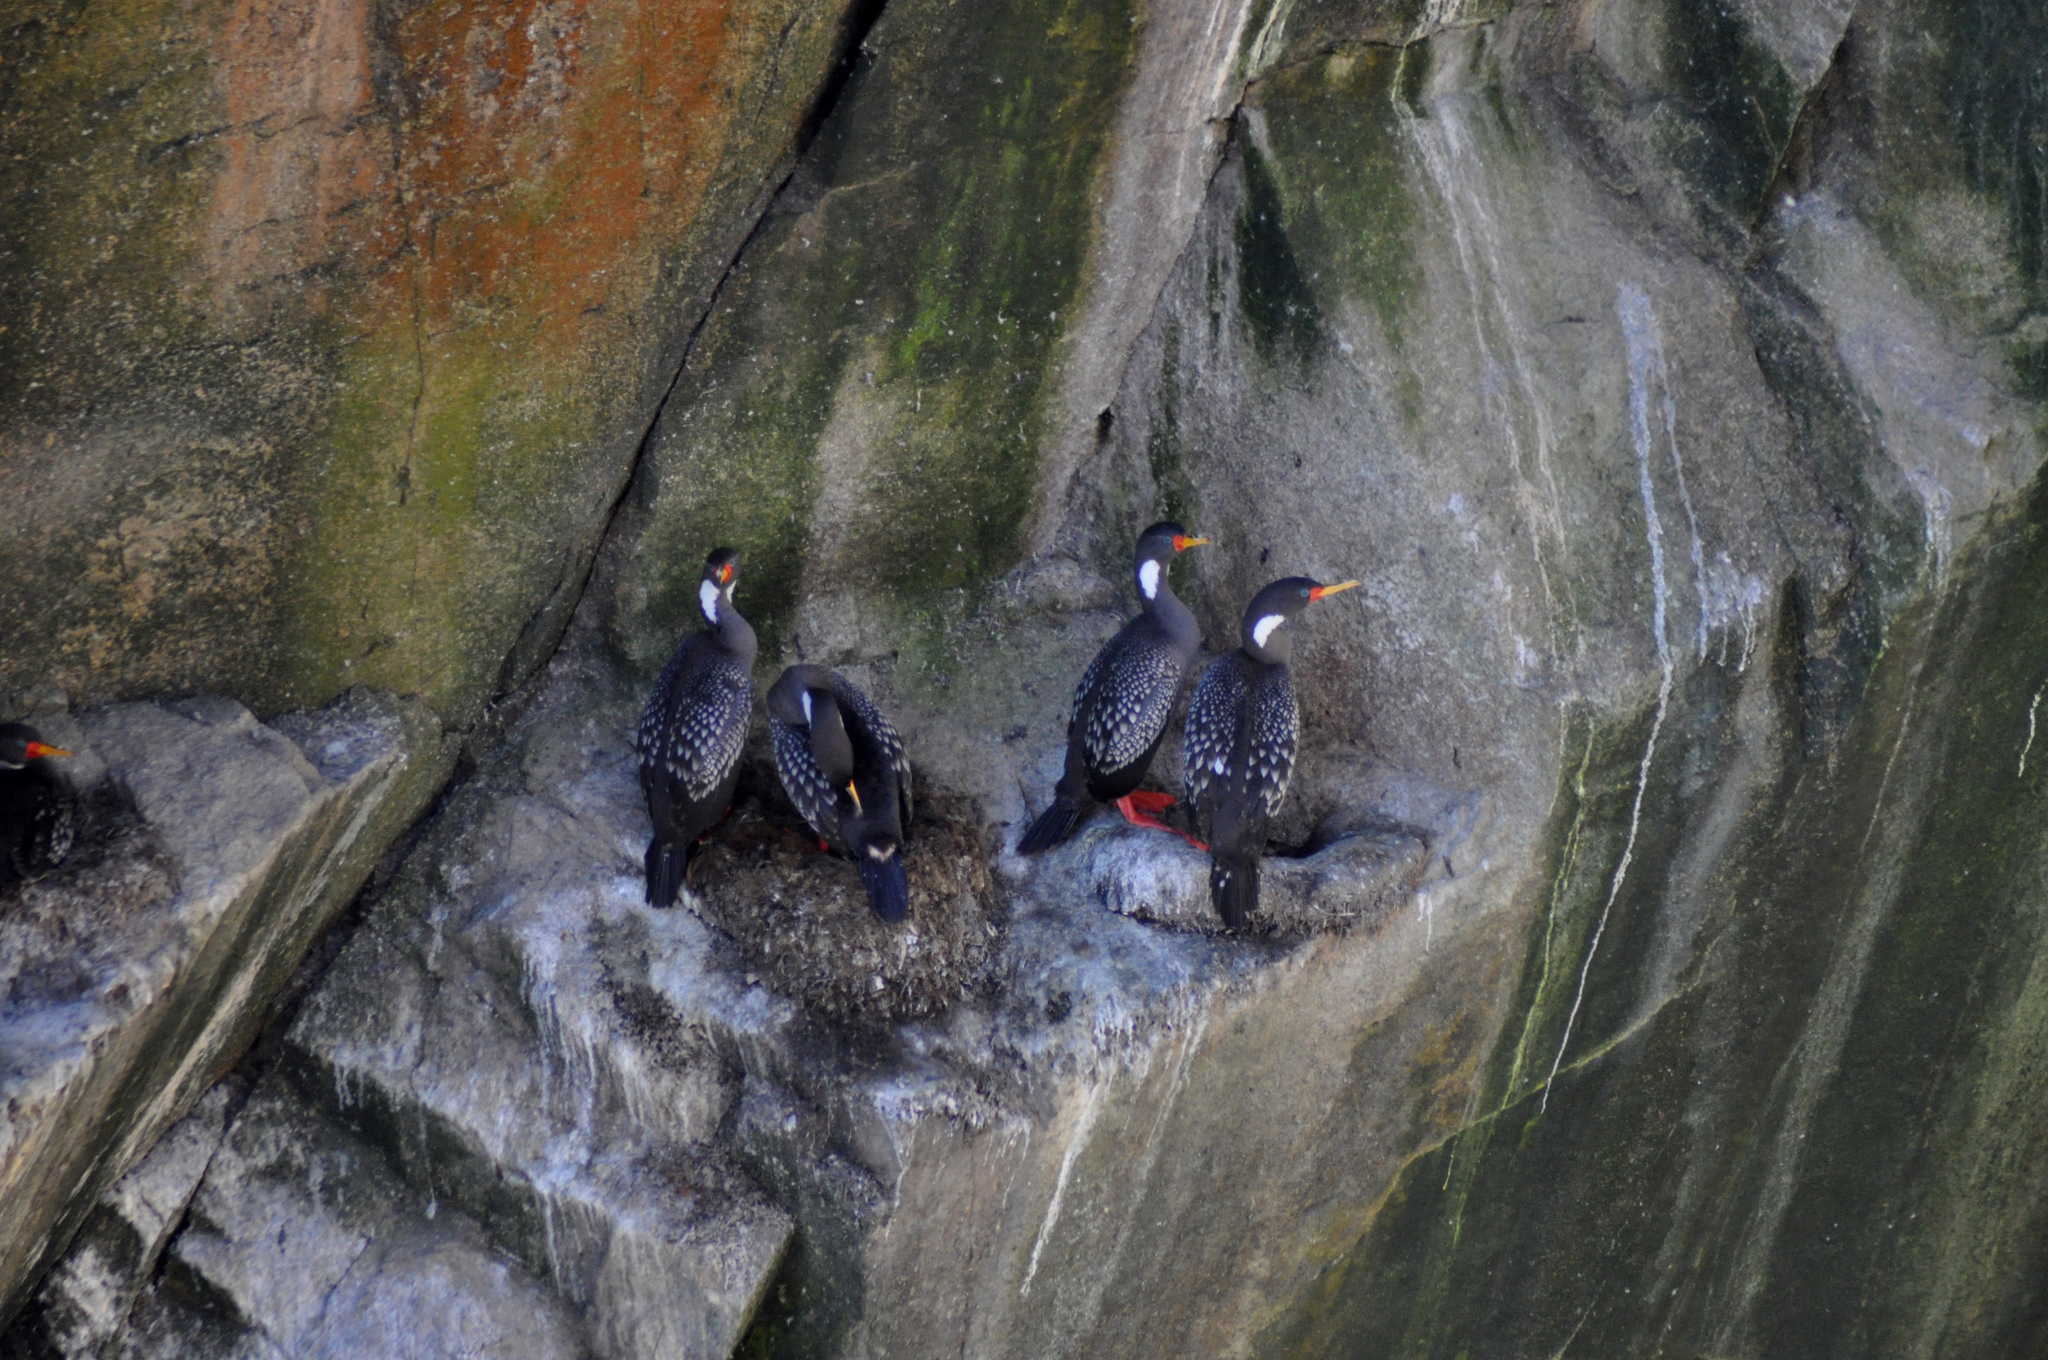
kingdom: Animalia
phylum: Chordata
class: Aves
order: Suliformes
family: Phalacrocoracidae
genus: Phalacrocorax
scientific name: Phalacrocorax gaimardi
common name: Red-legged cormorant
